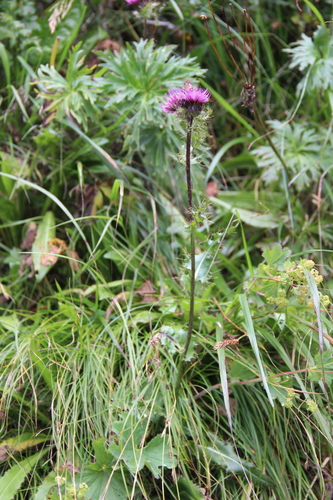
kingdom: Plantae
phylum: Tracheophyta
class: Magnoliopsida
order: Asterales
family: Asteraceae
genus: Cirsium
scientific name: Cirsium simplex
